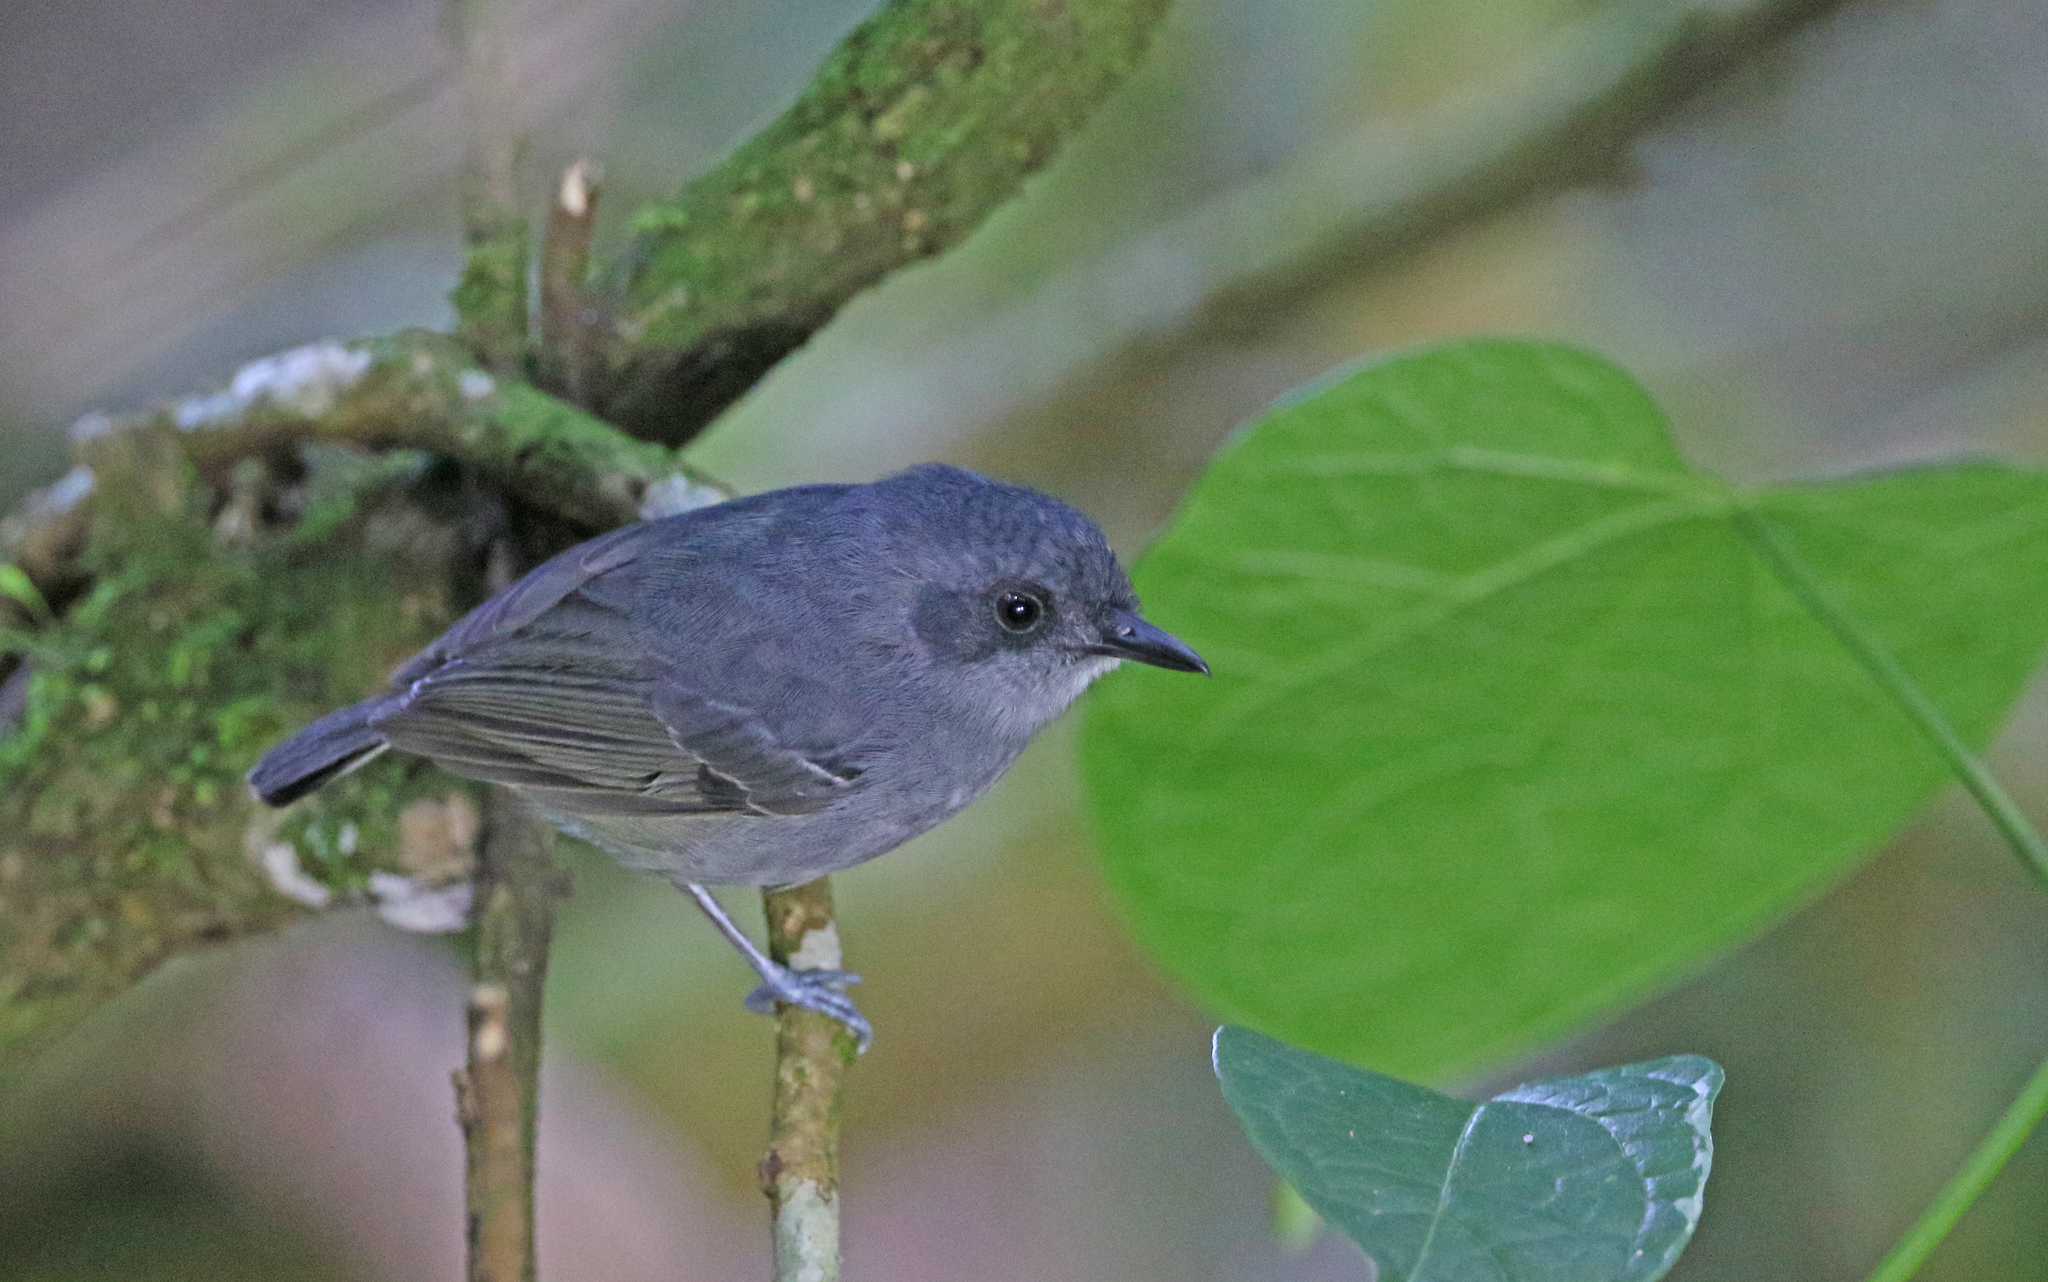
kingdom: Animalia
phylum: Chordata
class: Aves
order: Passeriformes
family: Thamnophilidae
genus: Dysithamnus
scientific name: Dysithamnus mentalis
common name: Plain antvireo
